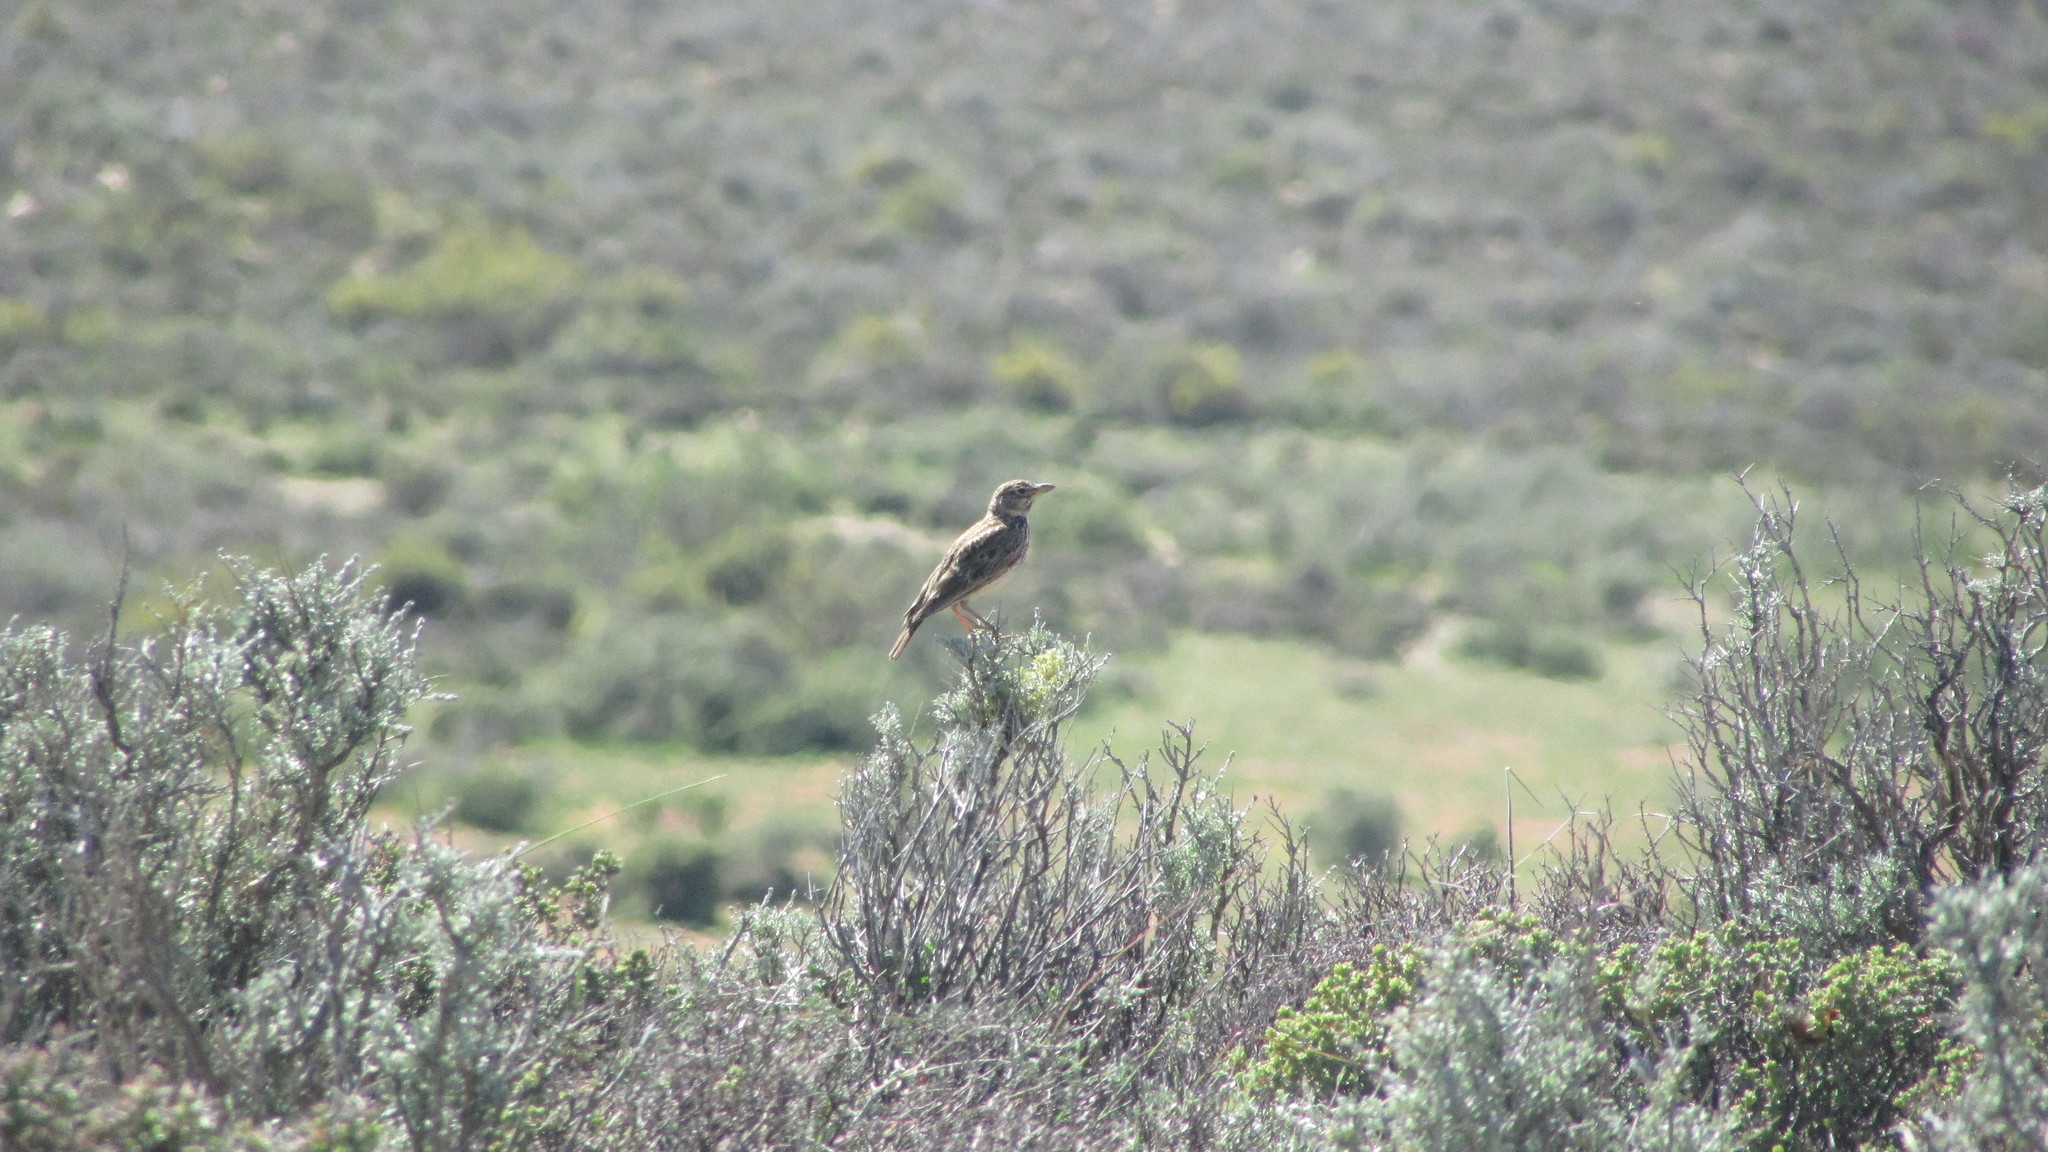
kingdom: Animalia
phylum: Chordata
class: Aves
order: Passeriformes
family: Alaudidae
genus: Galerida
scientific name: Galerida magnirostris
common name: Large-billed lark
